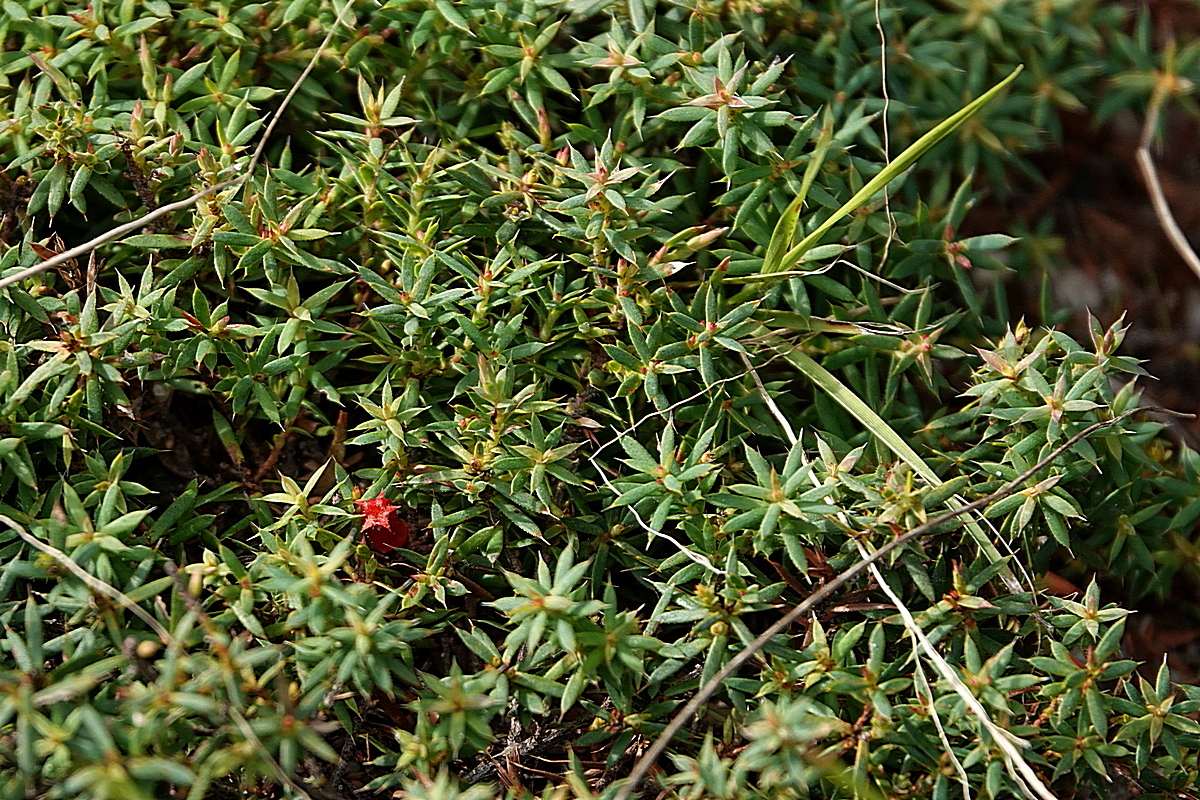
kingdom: Plantae
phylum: Tracheophyta
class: Magnoliopsida
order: Ericales
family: Ericaceae
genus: Styphelia
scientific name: Styphelia humifusa
